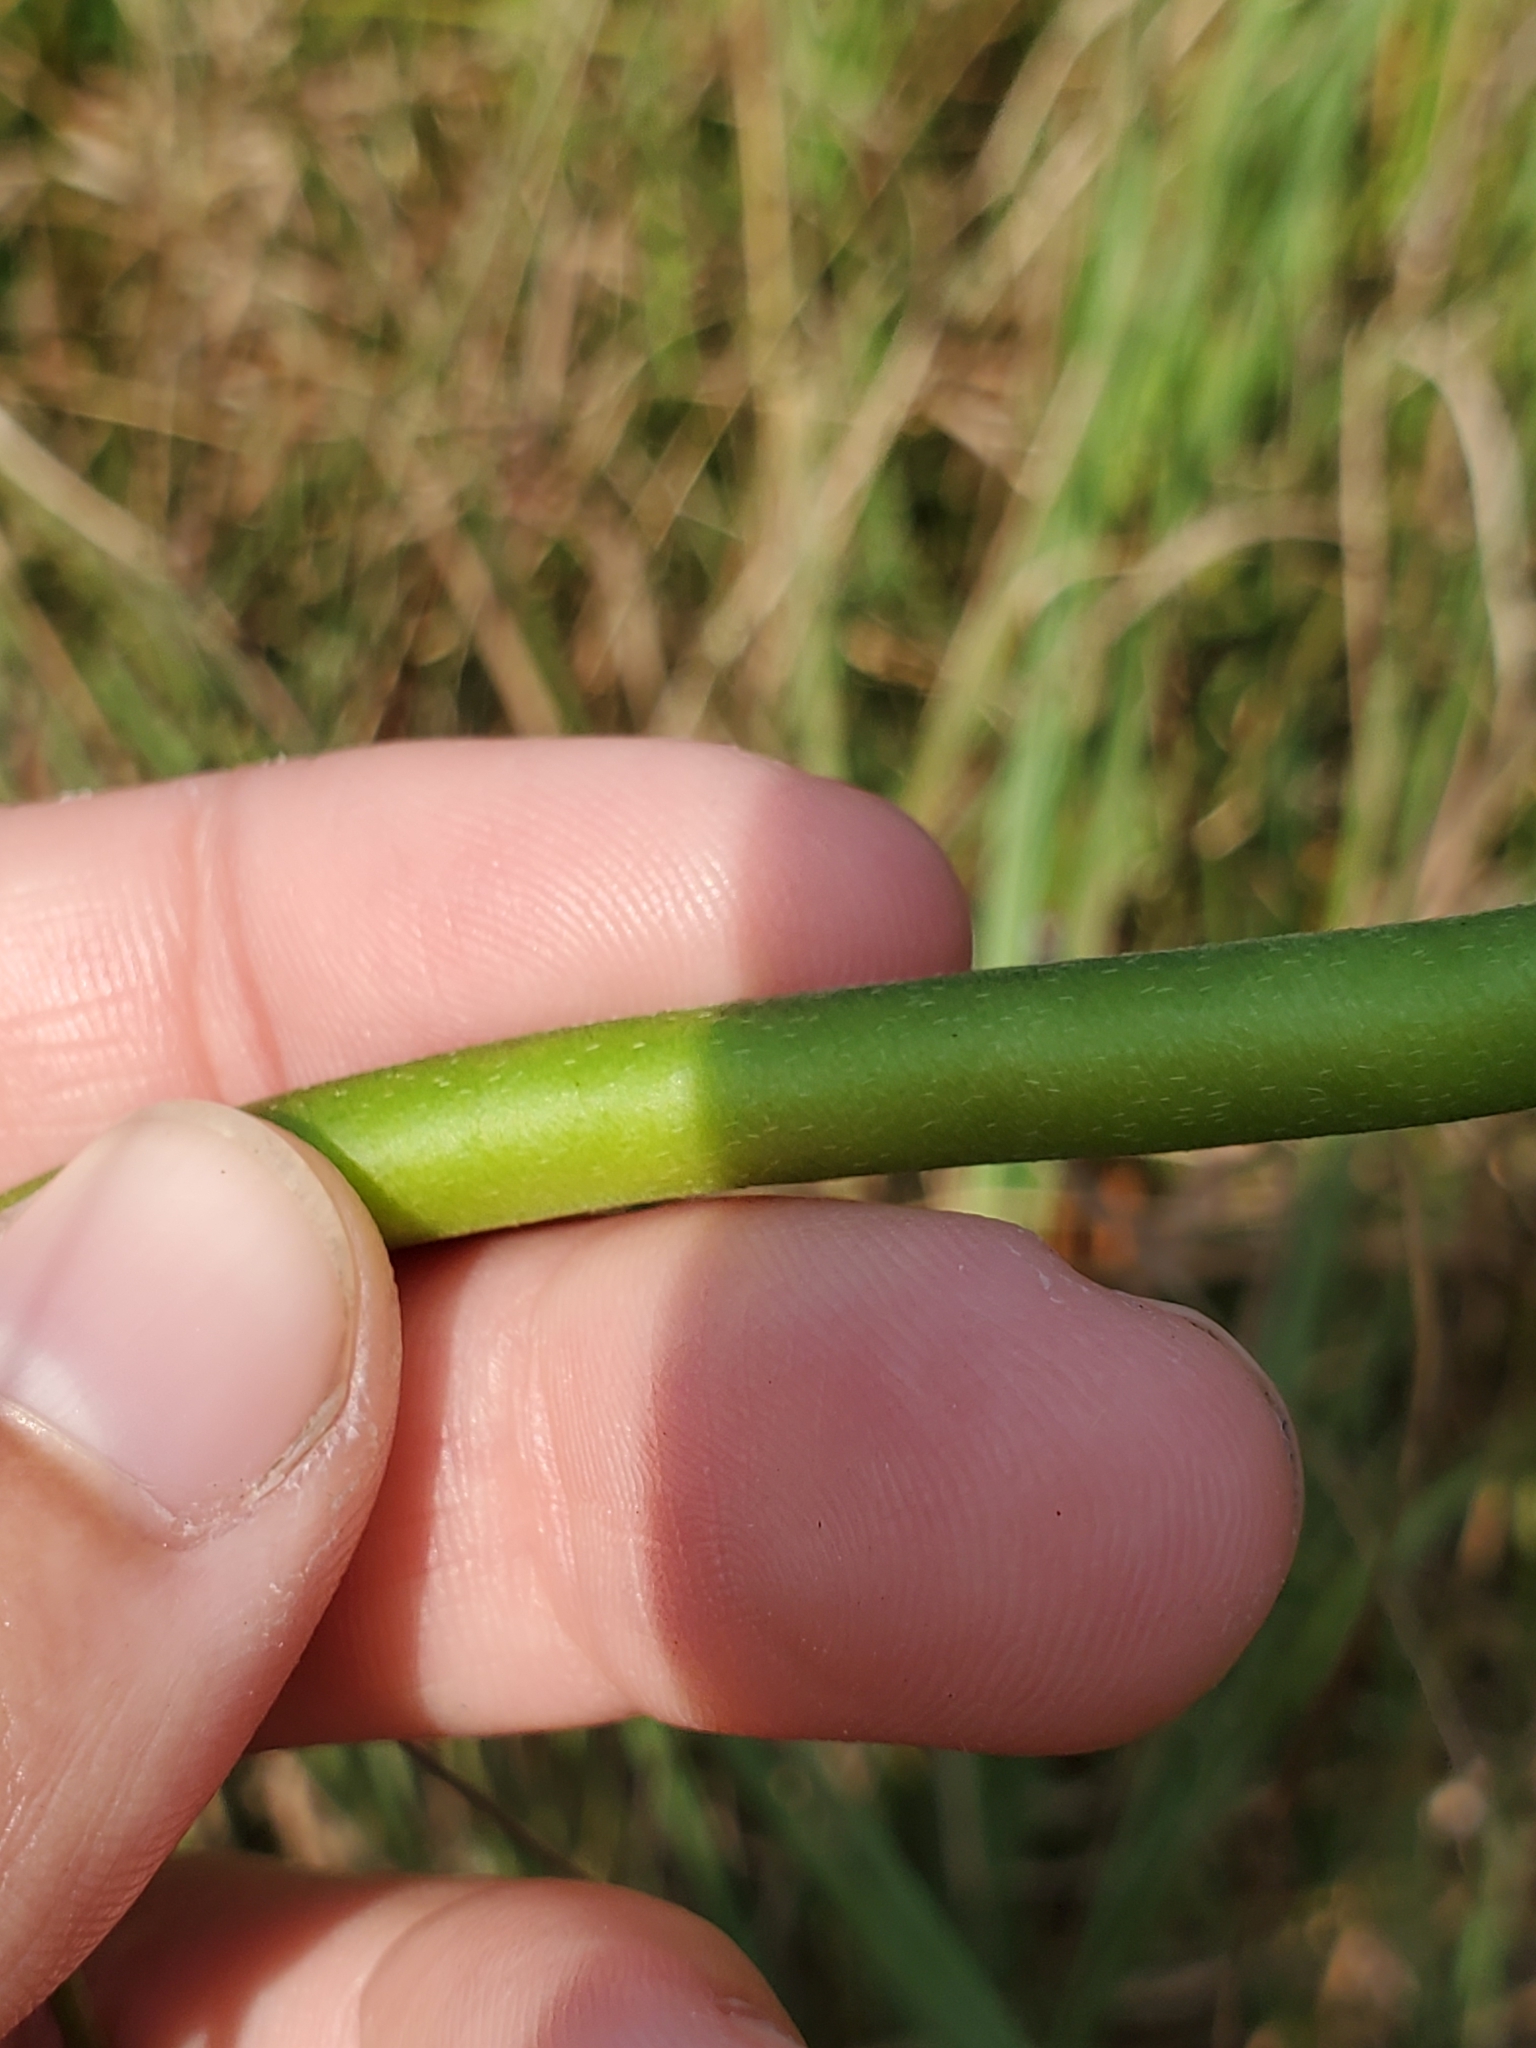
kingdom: Plantae
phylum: Tracheophyta
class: Magnoliopsida
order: Fabales
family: Fabaceae
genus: Strophostyles
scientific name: Strophostyles helvola
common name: Trailing wild bean
